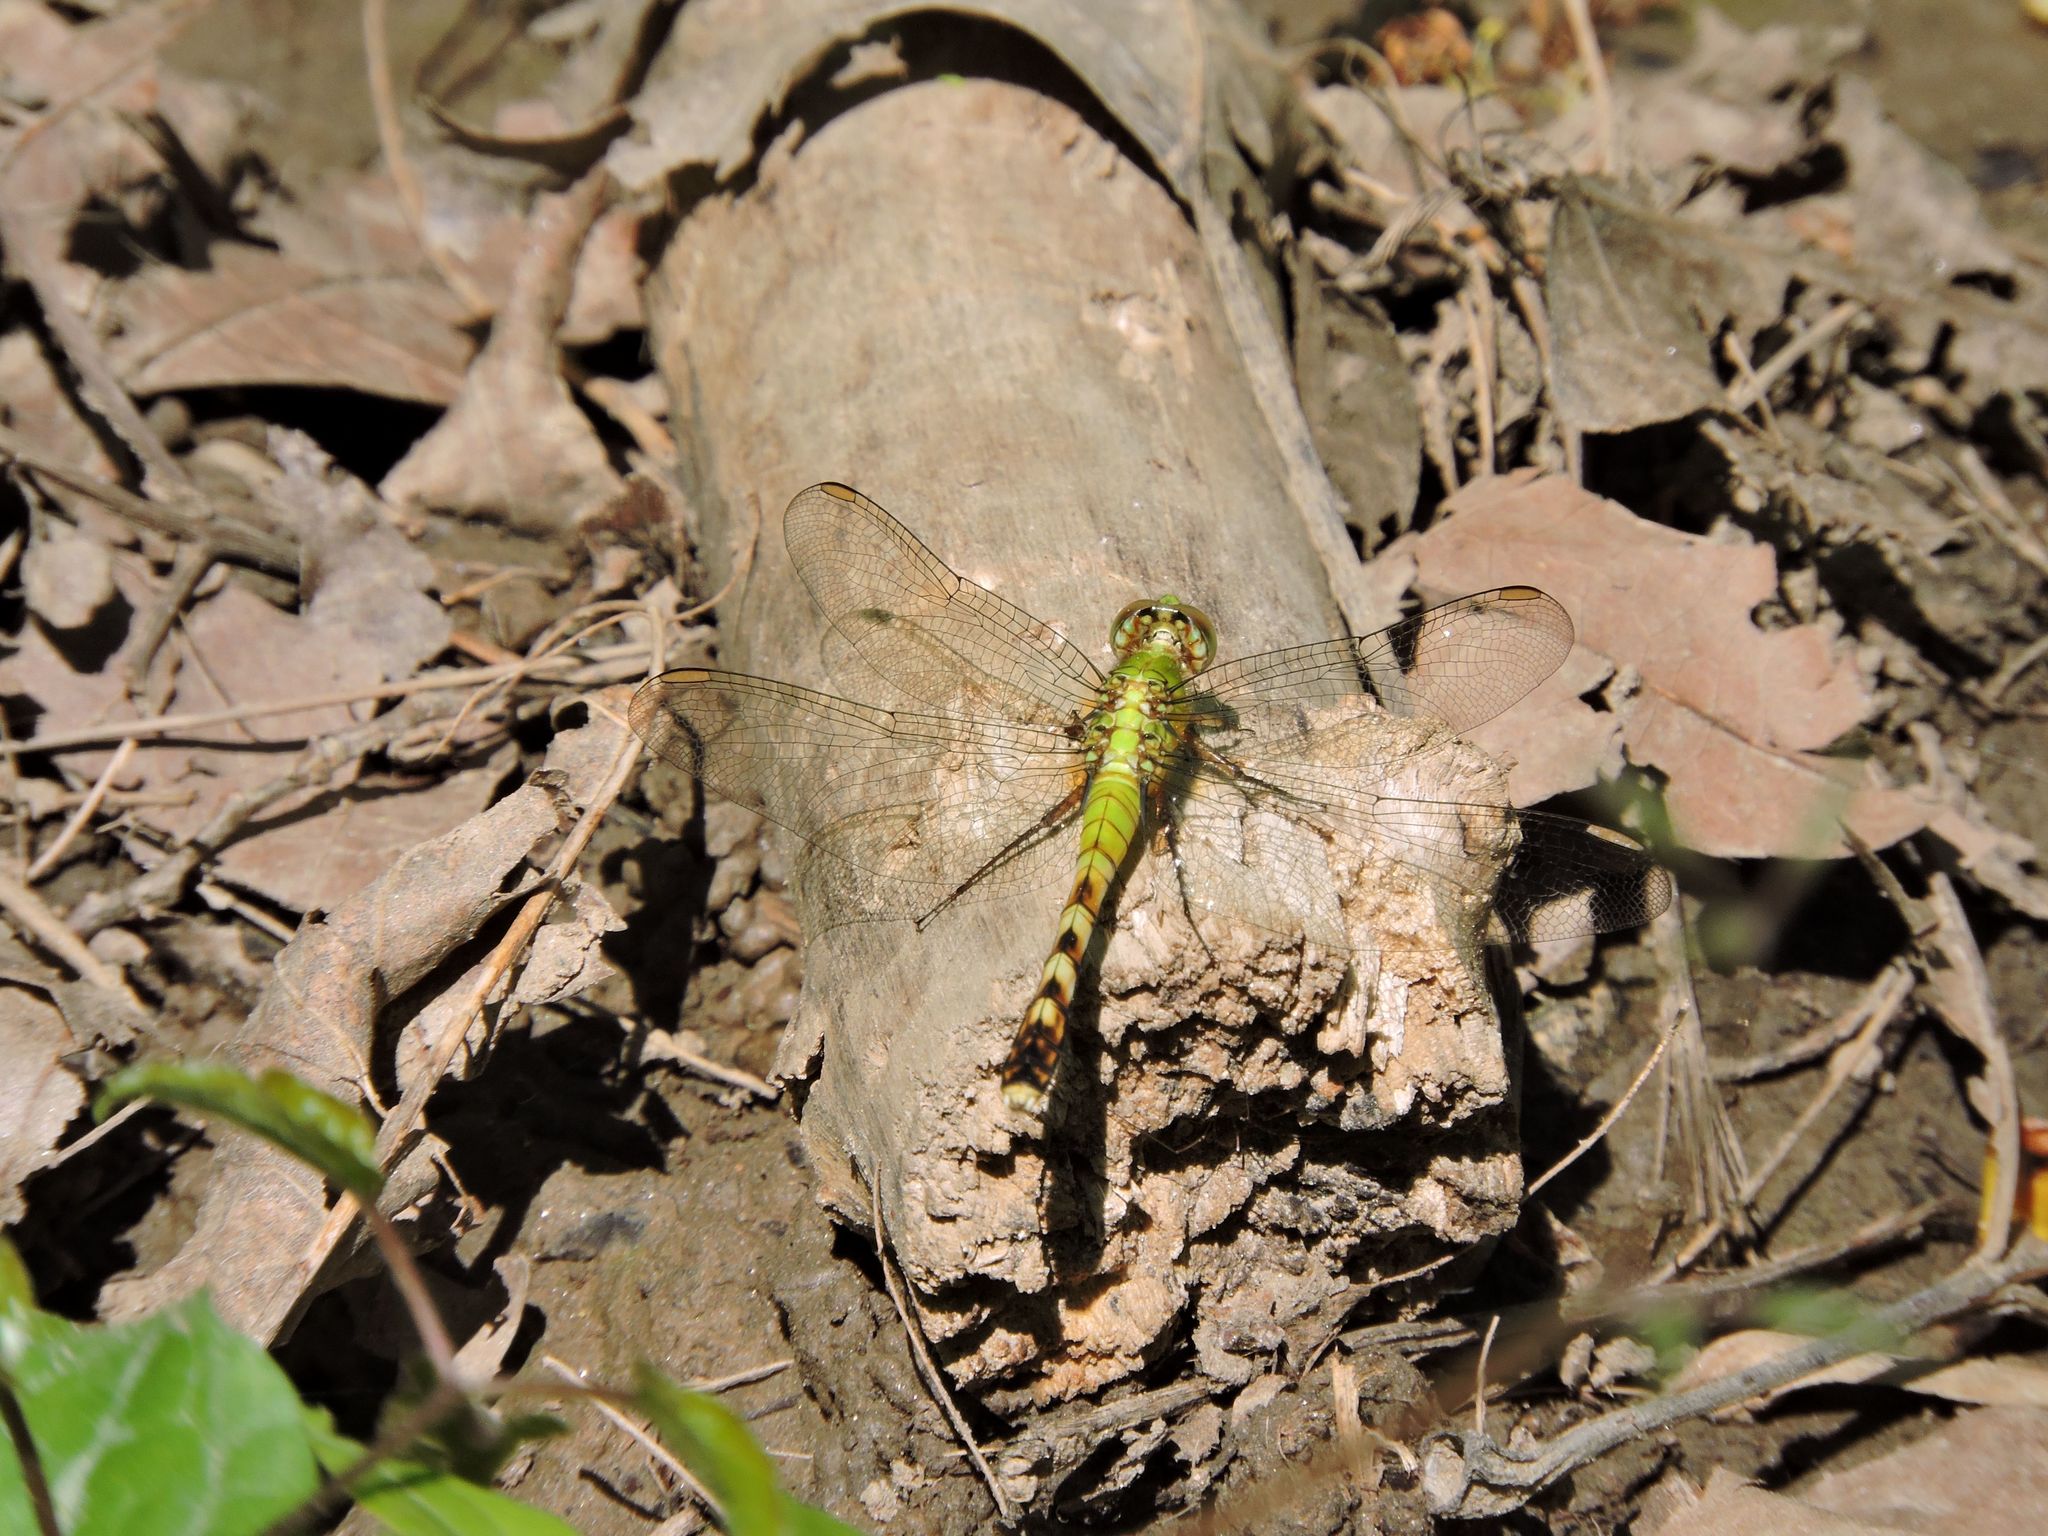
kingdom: Animalia
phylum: Arthropoda
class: Insecta
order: Odonata
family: Libellulidae
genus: Erythemis
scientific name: Erythemis simplicicollis
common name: Eastern pondhawk
